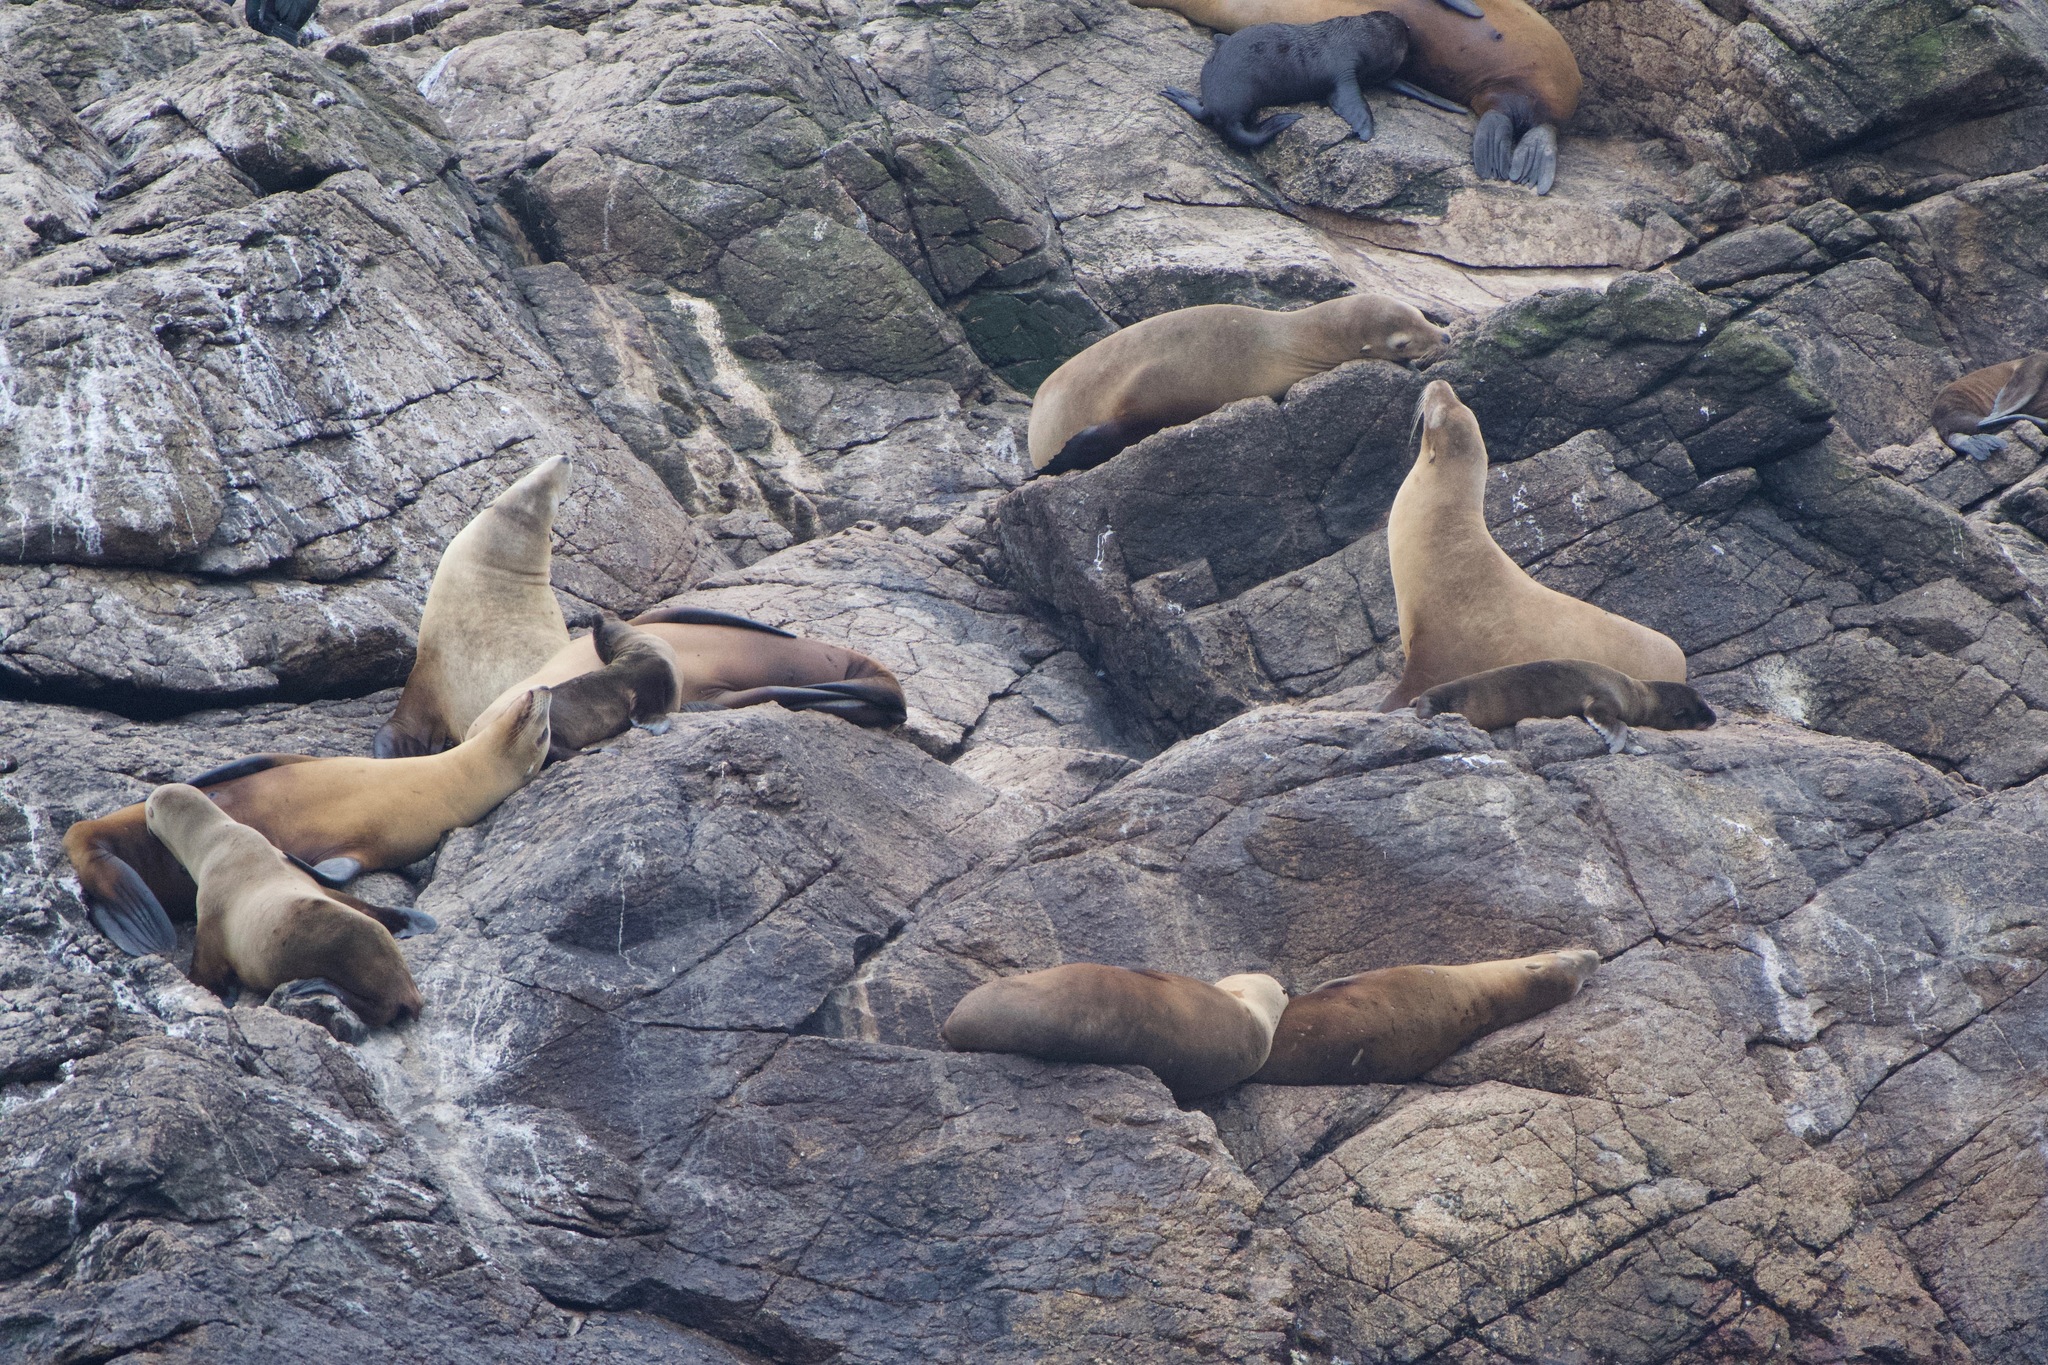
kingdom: Animalia
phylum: Chordata
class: Mammalia
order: Carnivora
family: Otariidae
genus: Zalophus
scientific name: Zalophus californianus
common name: California sea lion
